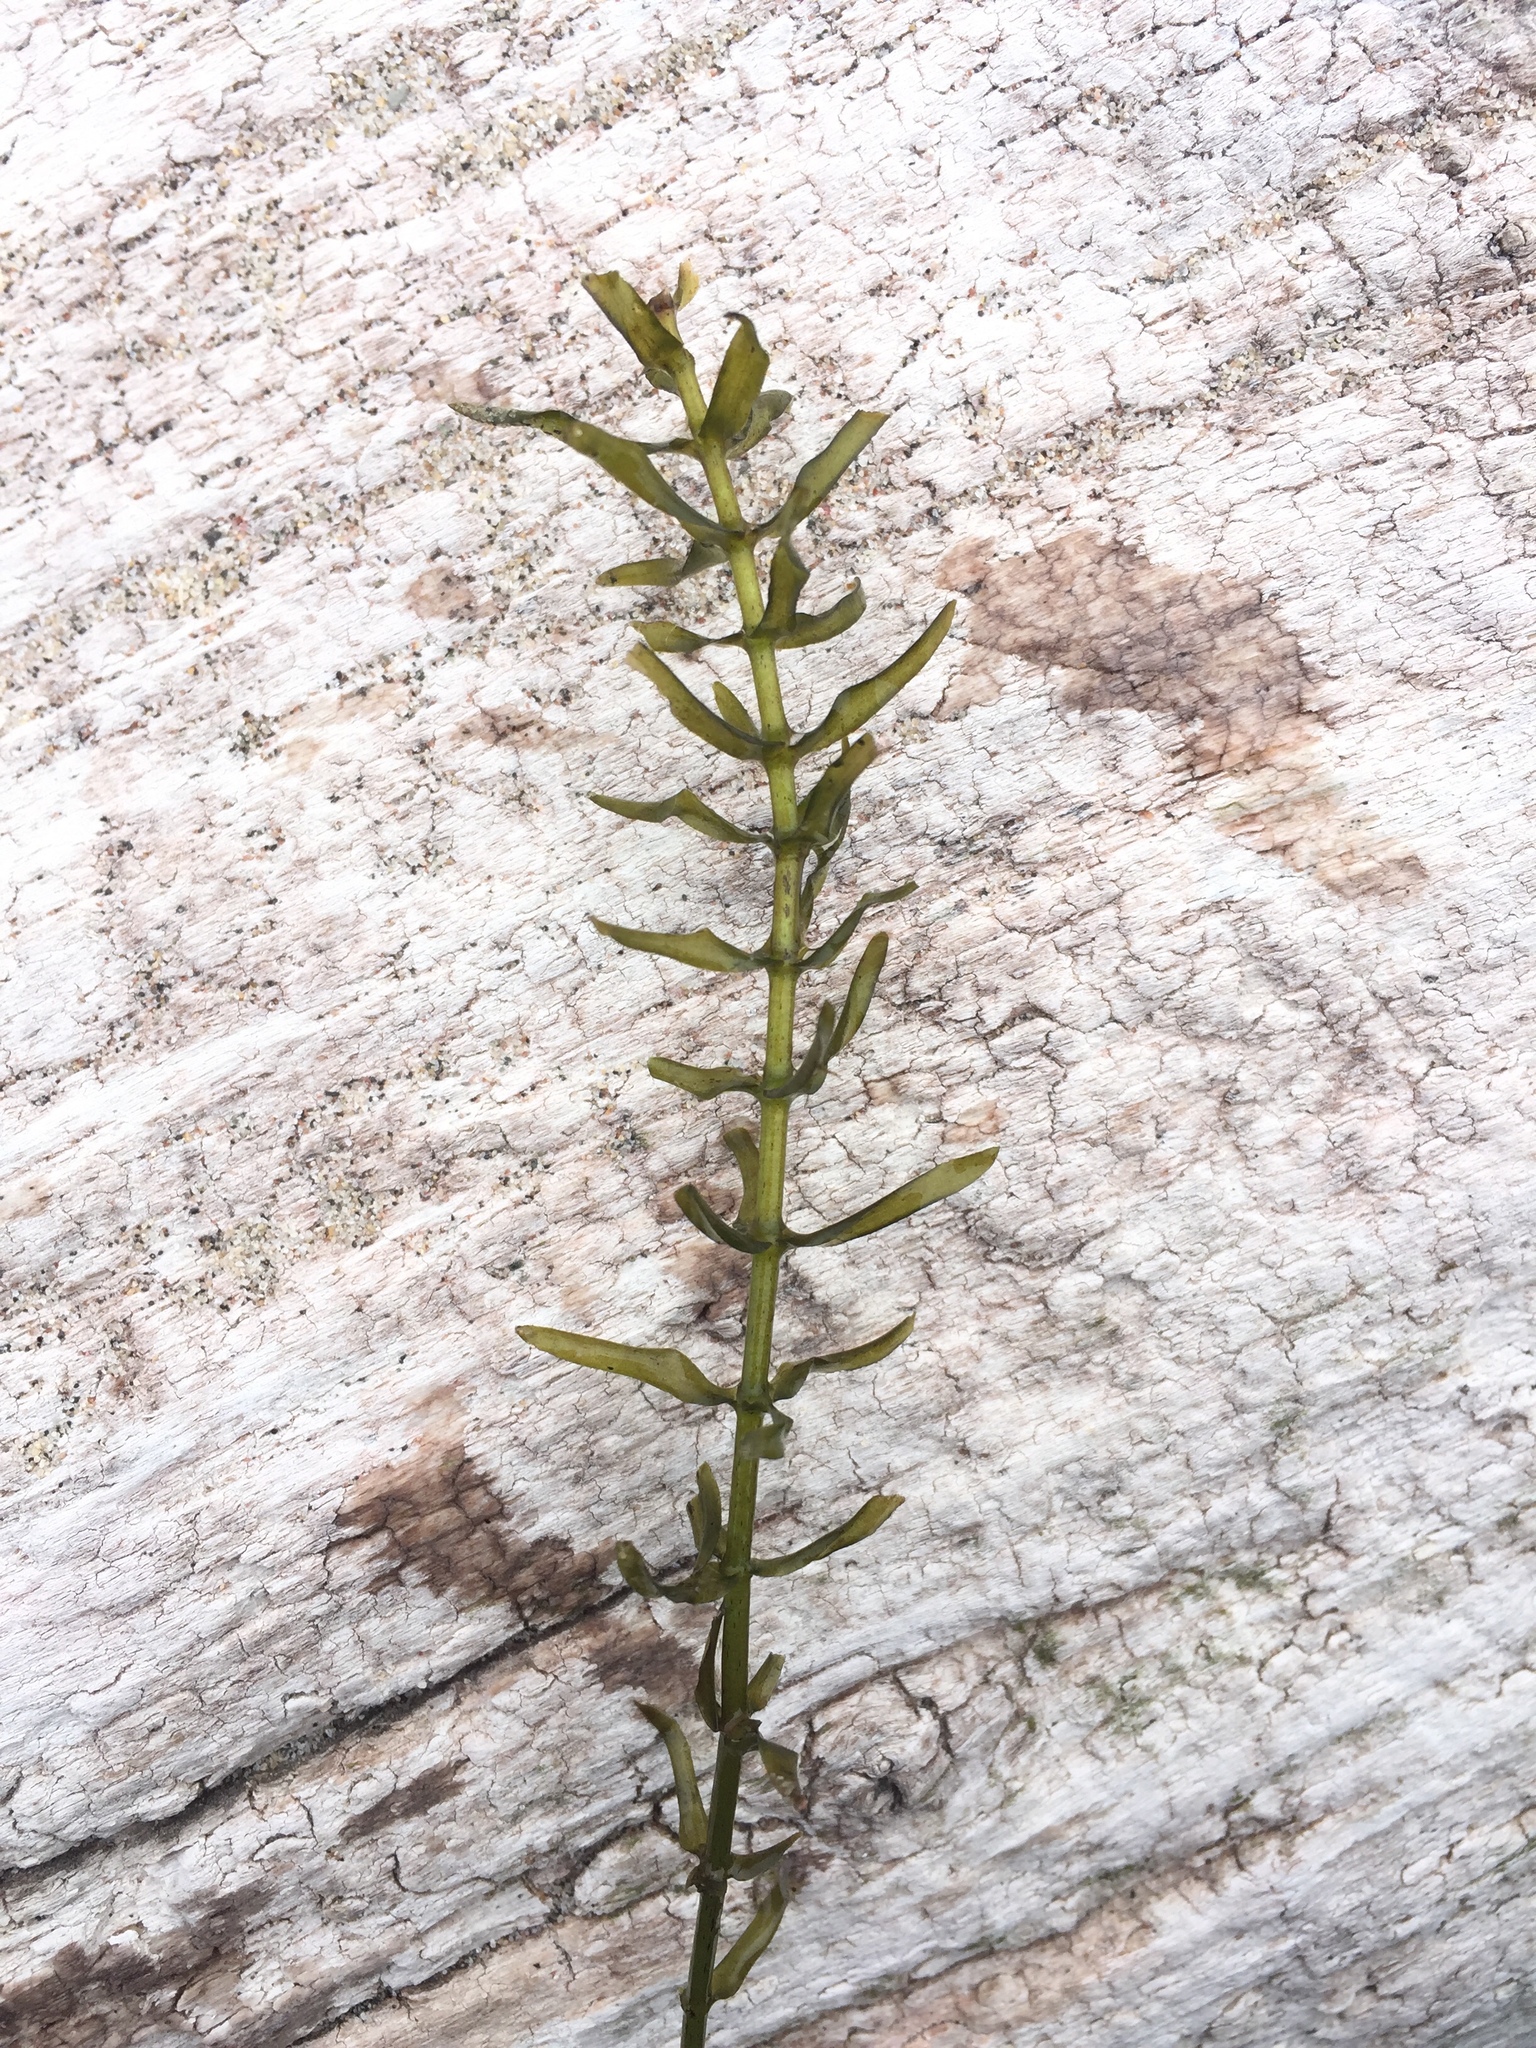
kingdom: Plantae
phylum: Tracheophyta
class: Liliopsida
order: Alismatales
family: Hydrocharitaceae
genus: Elodea
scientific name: Elodea canadensis
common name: Canadian waterweed
